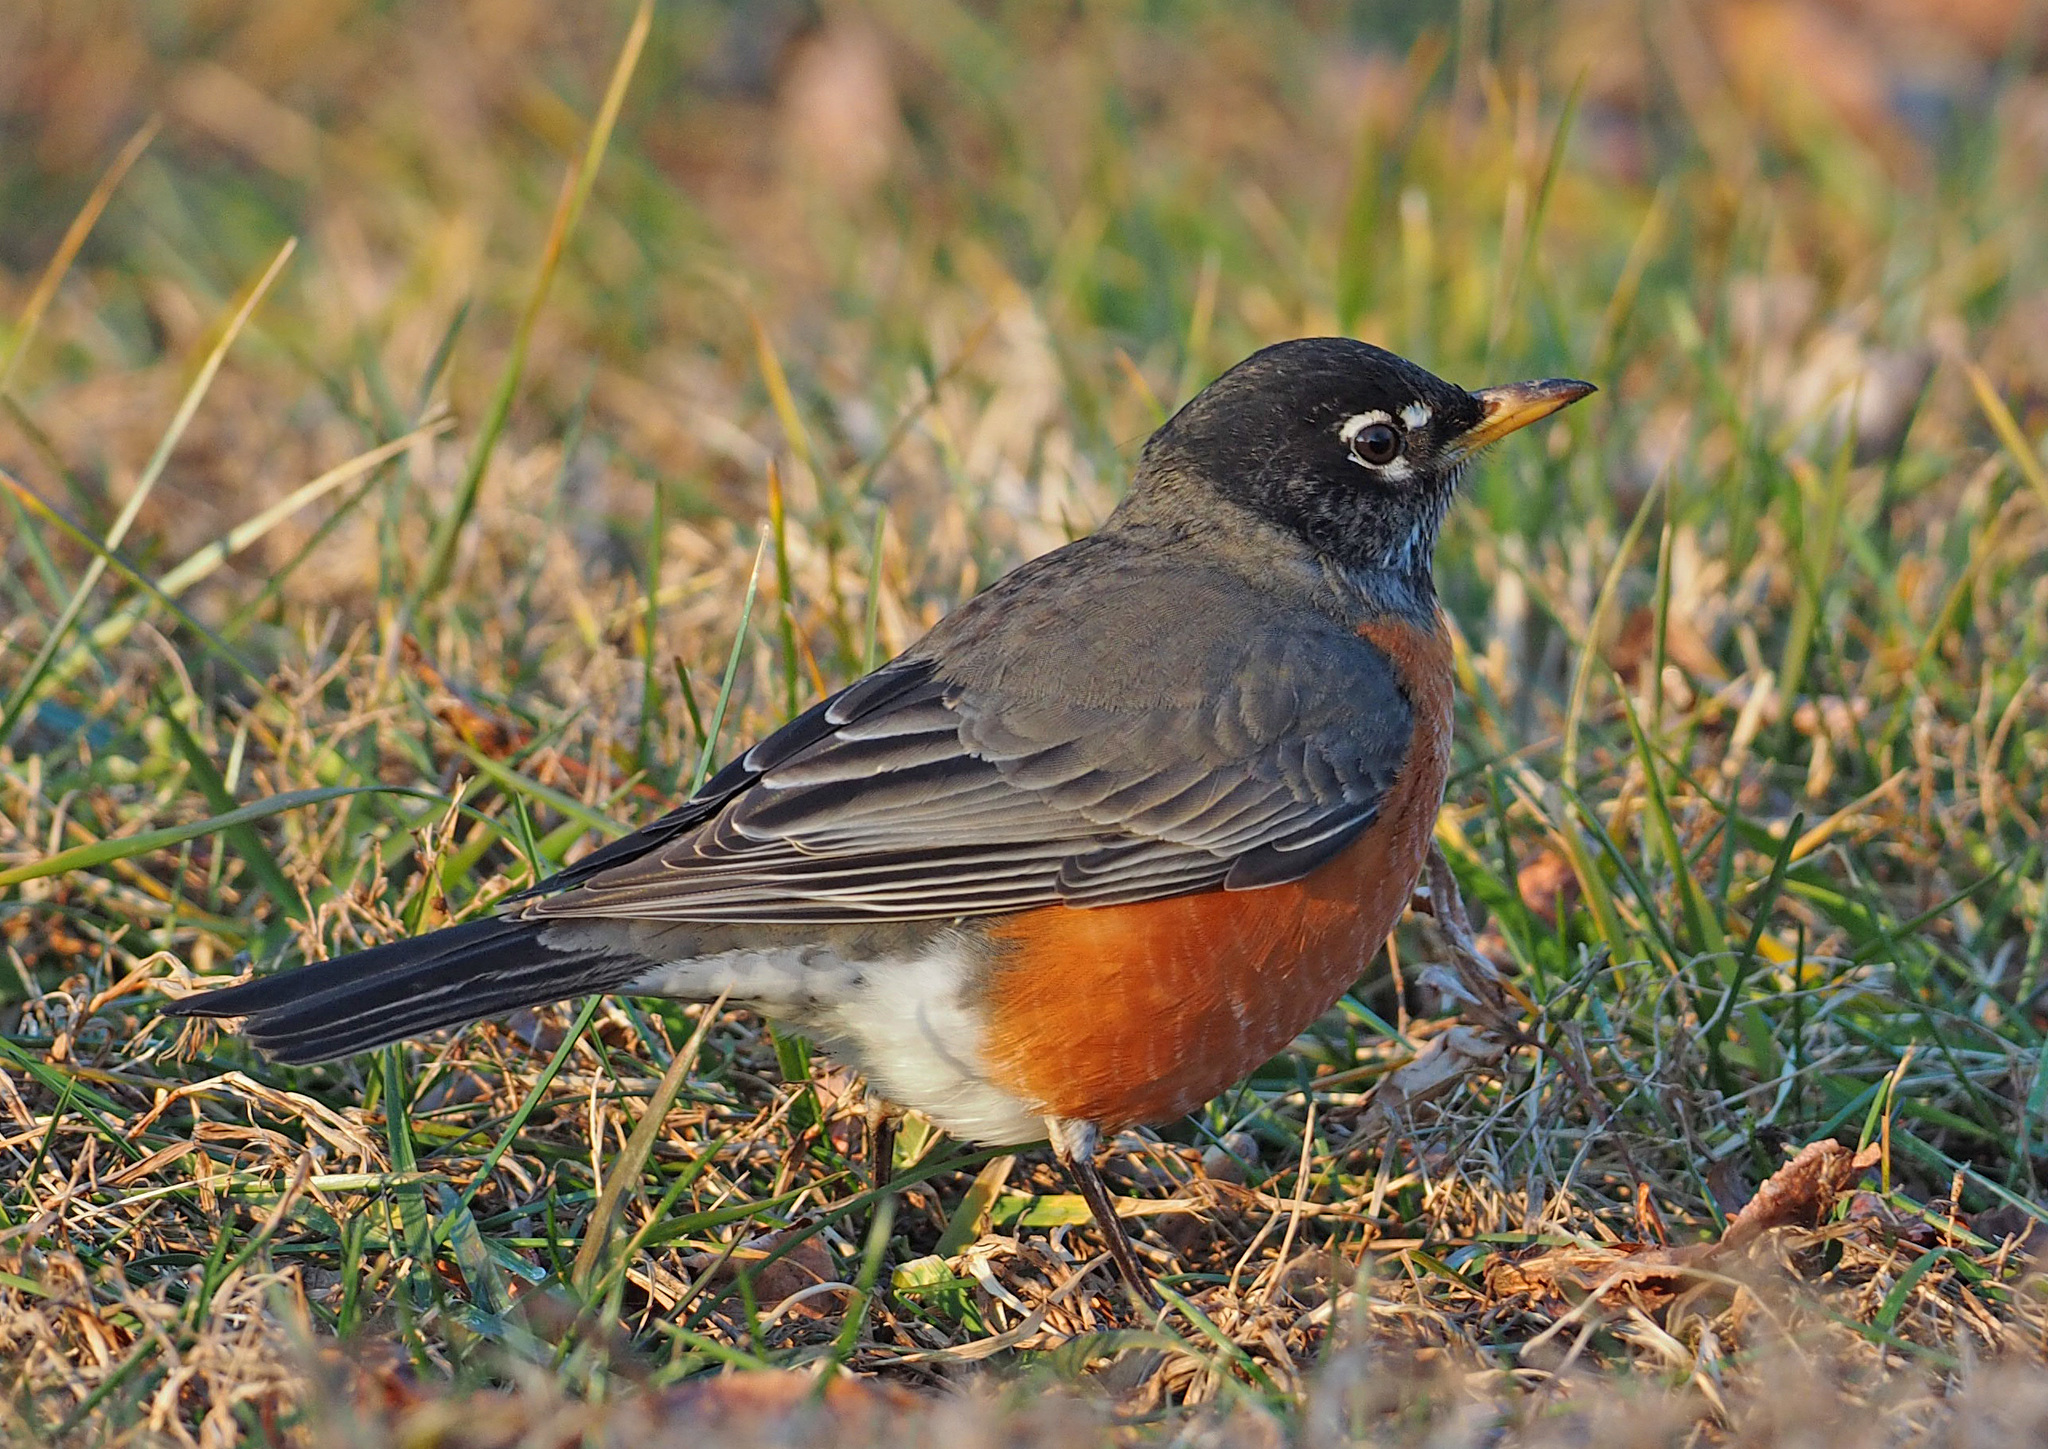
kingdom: Animalia
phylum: Chordata
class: Aves
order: Passeriformes
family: Turdidae
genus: Turdus
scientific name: Turdus migratorius
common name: American robin
